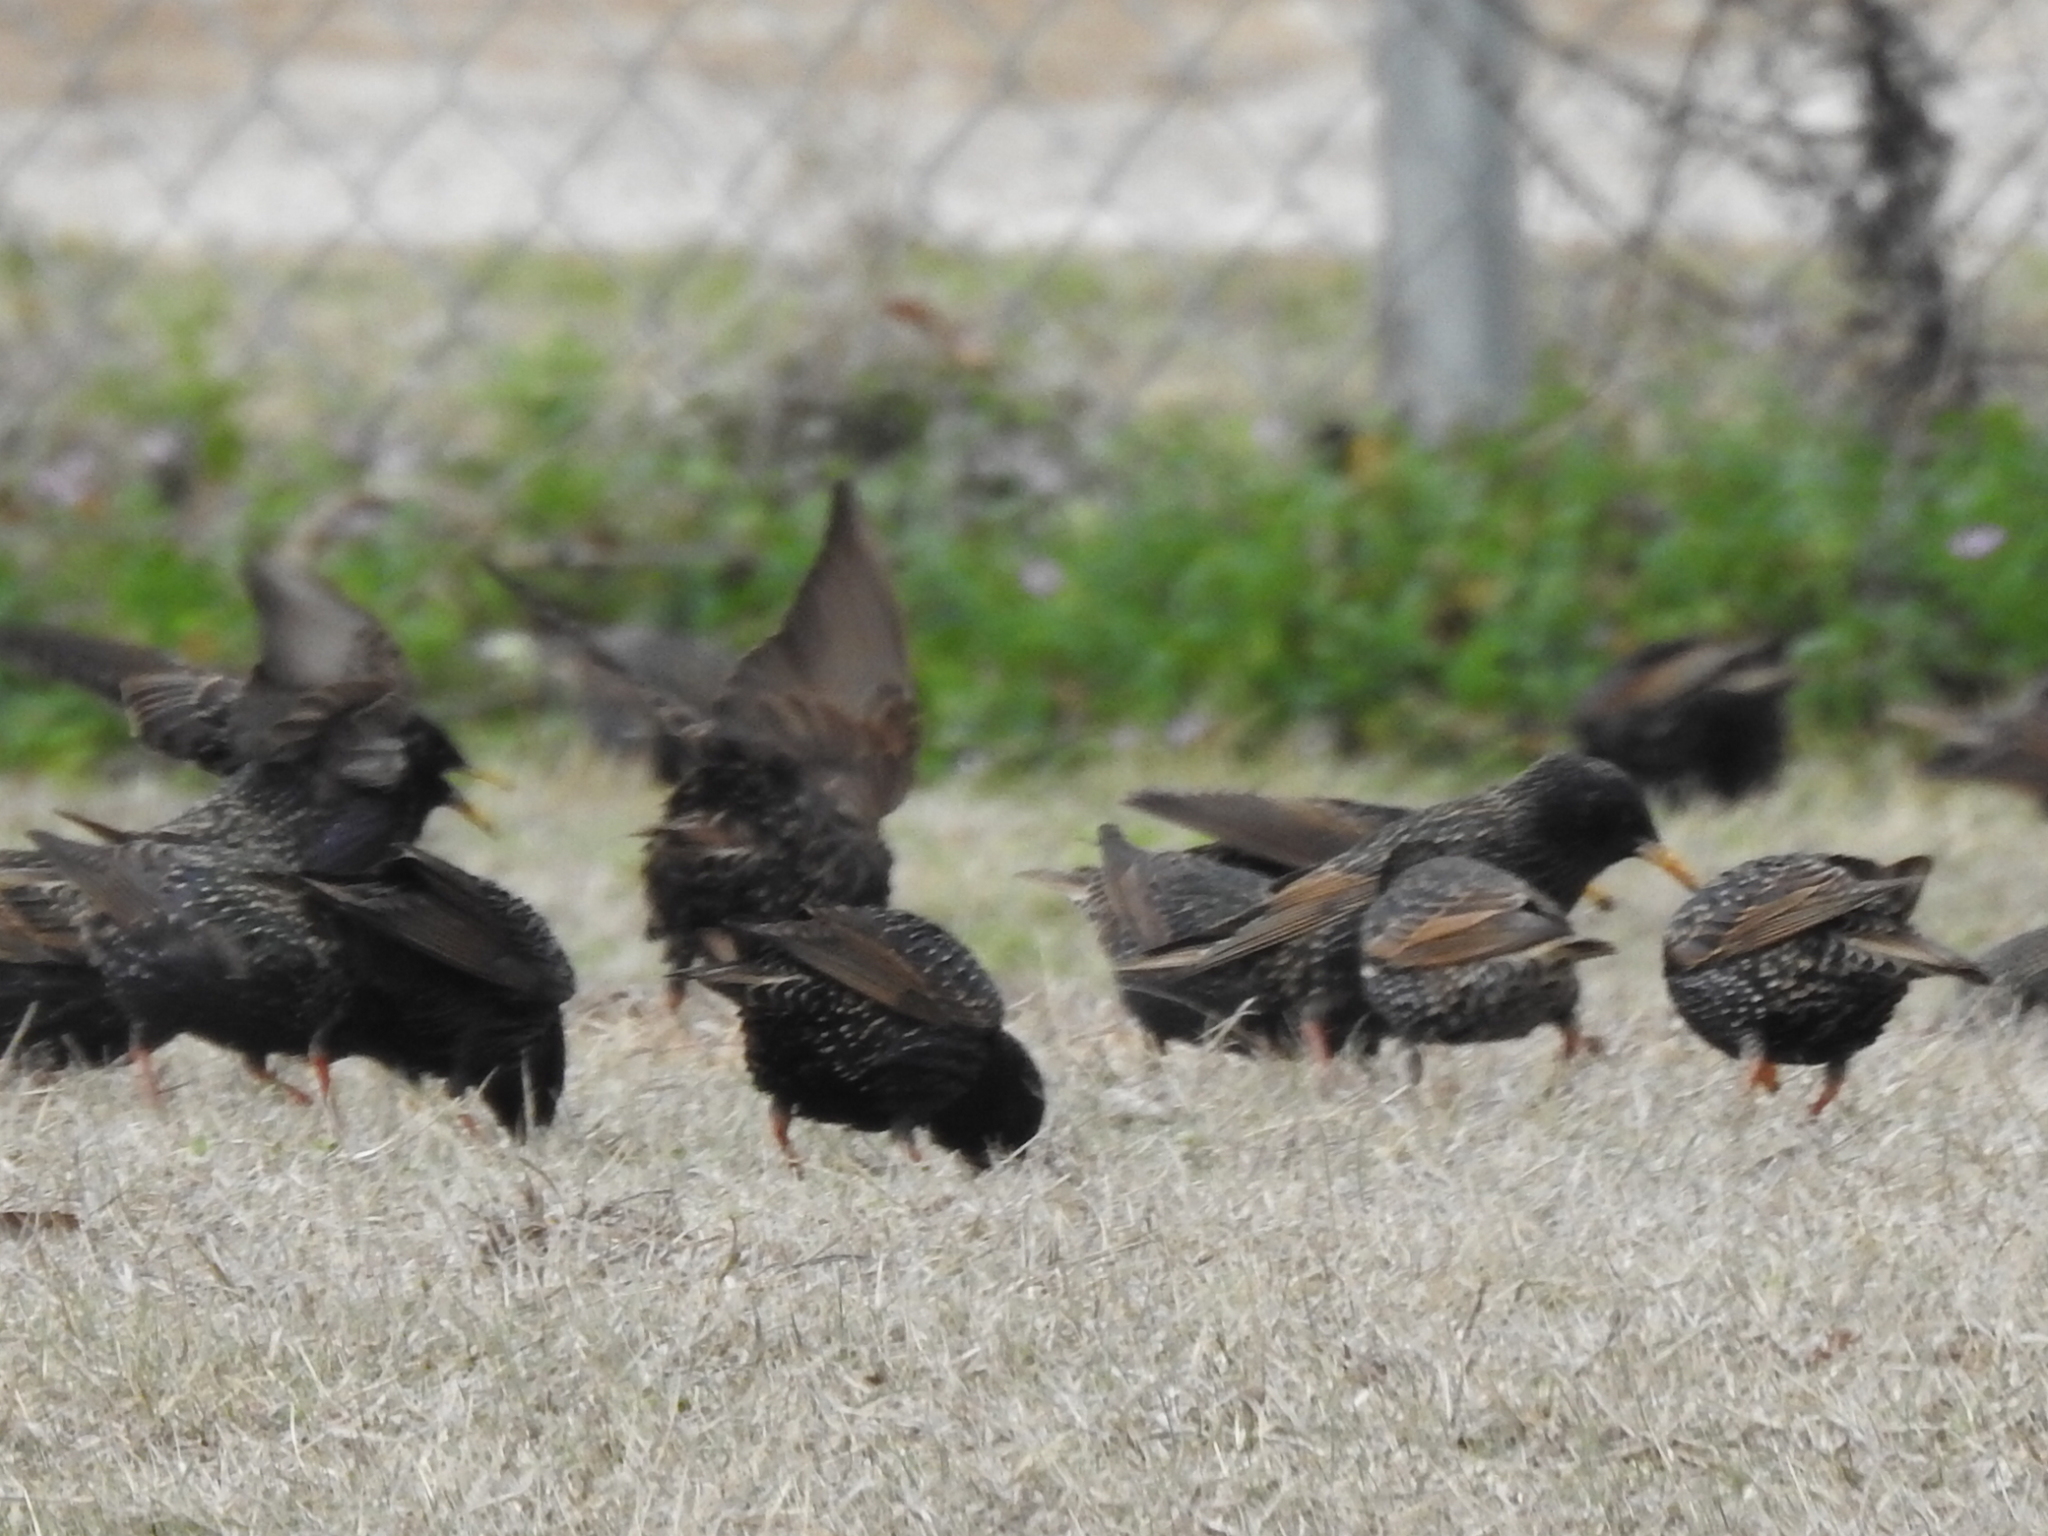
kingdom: Animalia
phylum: Chordata
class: Aves
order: Passeriformes
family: Sturnidae
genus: Sturnus
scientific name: Sturnus vulgaris
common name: Common starling
